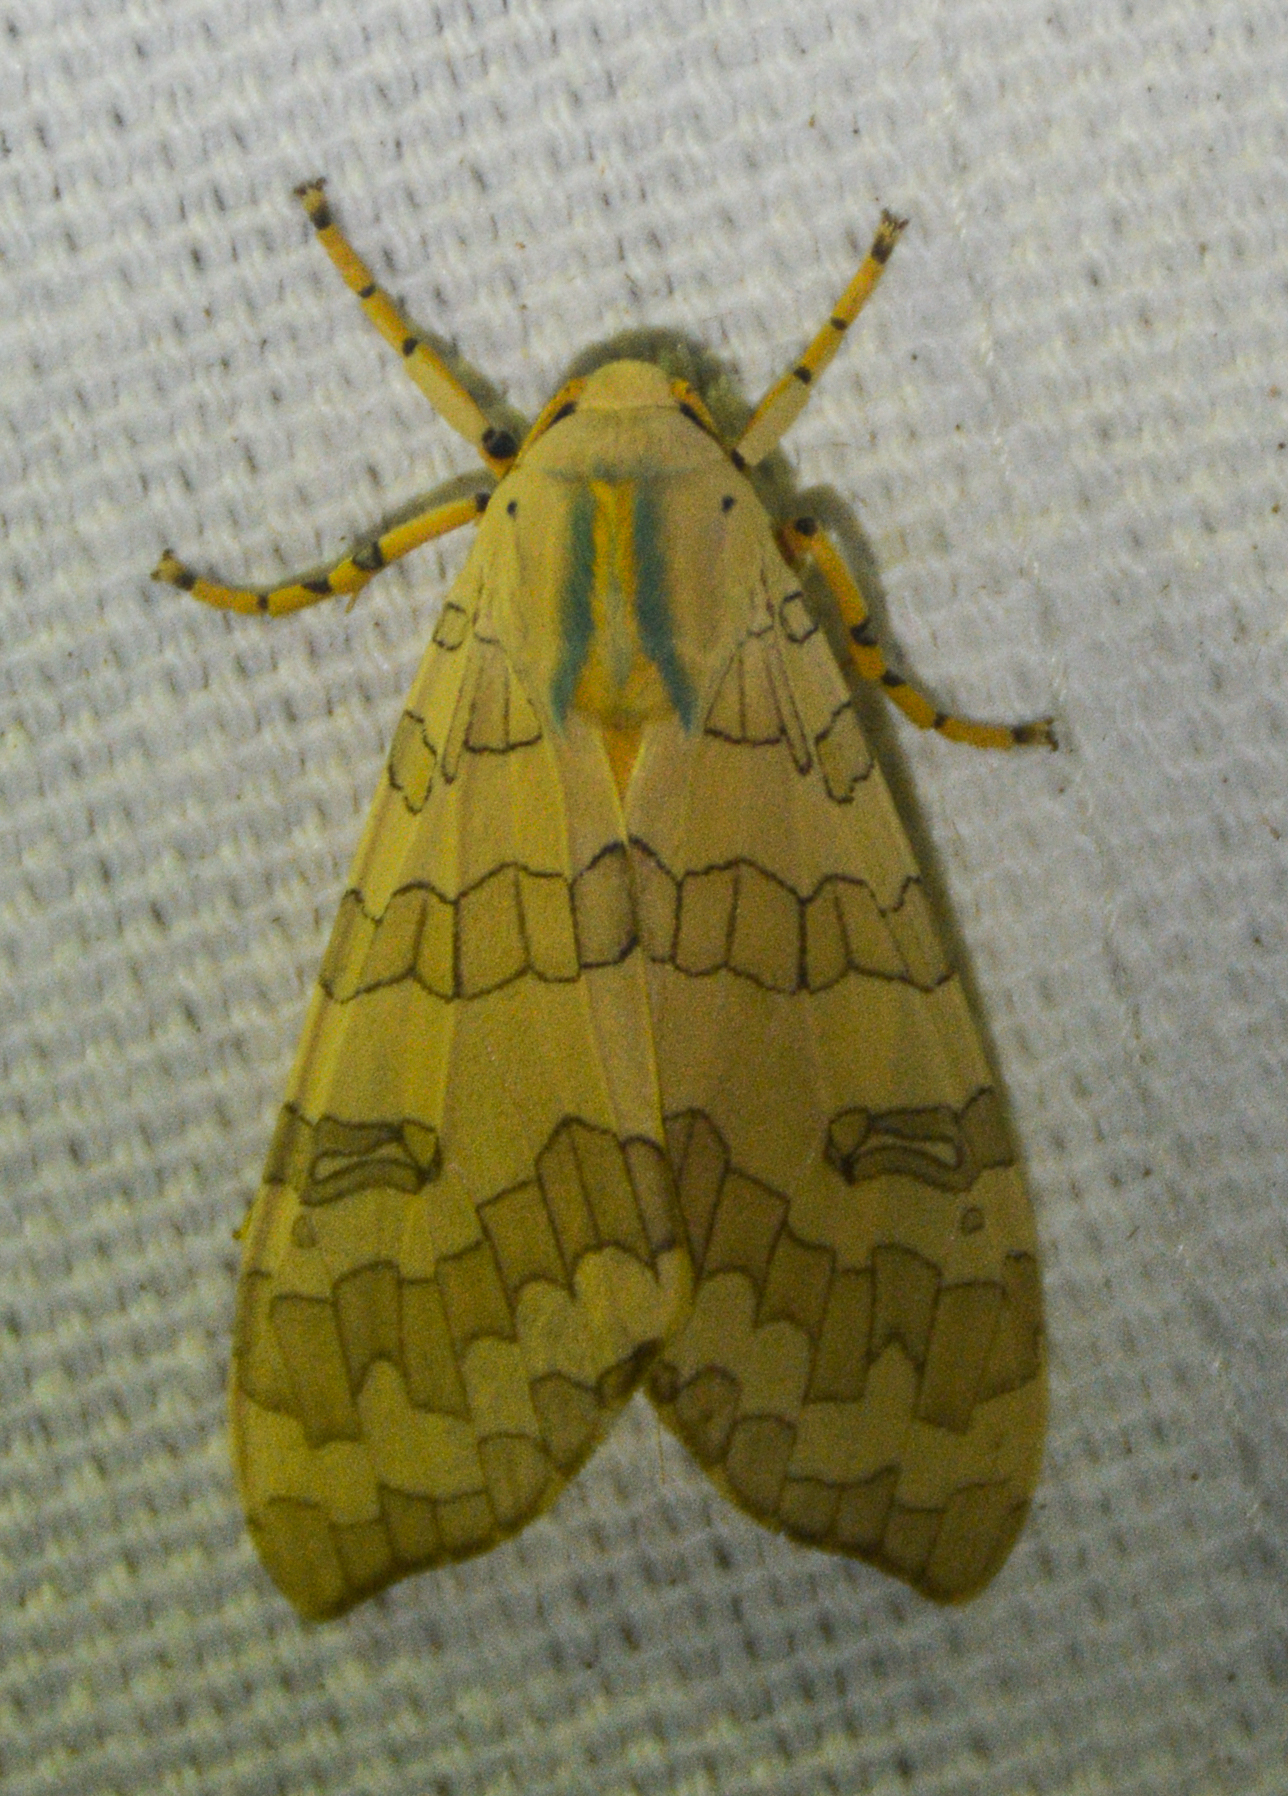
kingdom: Animalia
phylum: Arthropoda
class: Insecta
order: Lepidoptera
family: Erebidae
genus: Halysidota
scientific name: Halysidota
